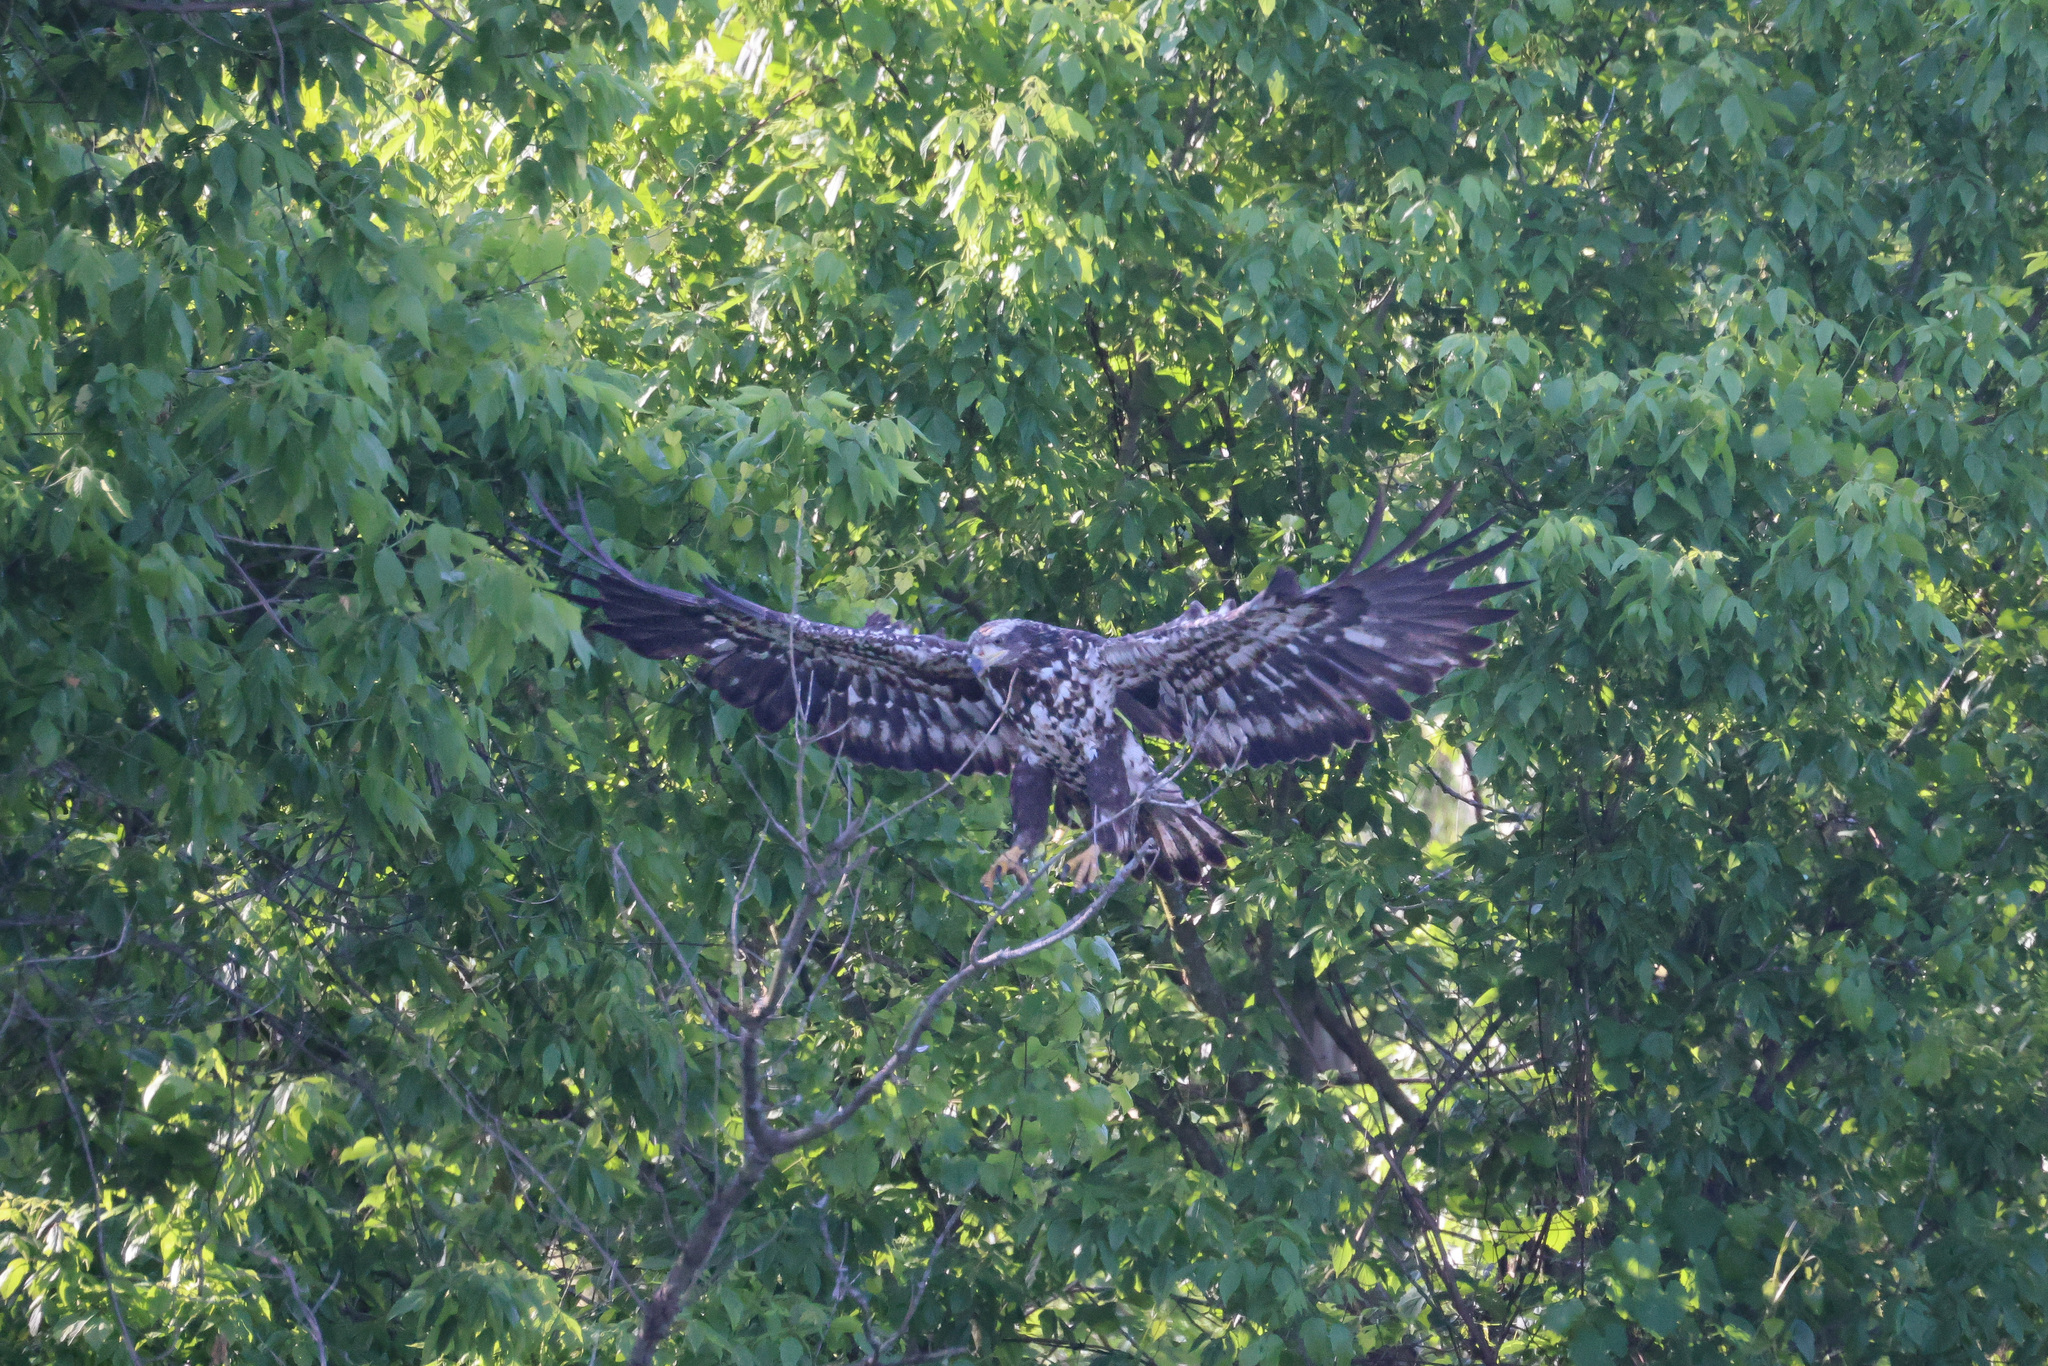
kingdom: Animalia
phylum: Chordata
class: Aves
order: Accipitriformes
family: Accipitridae
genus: Haliaeetus
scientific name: Haliaeetus leucocephalus
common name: Bald eagle
